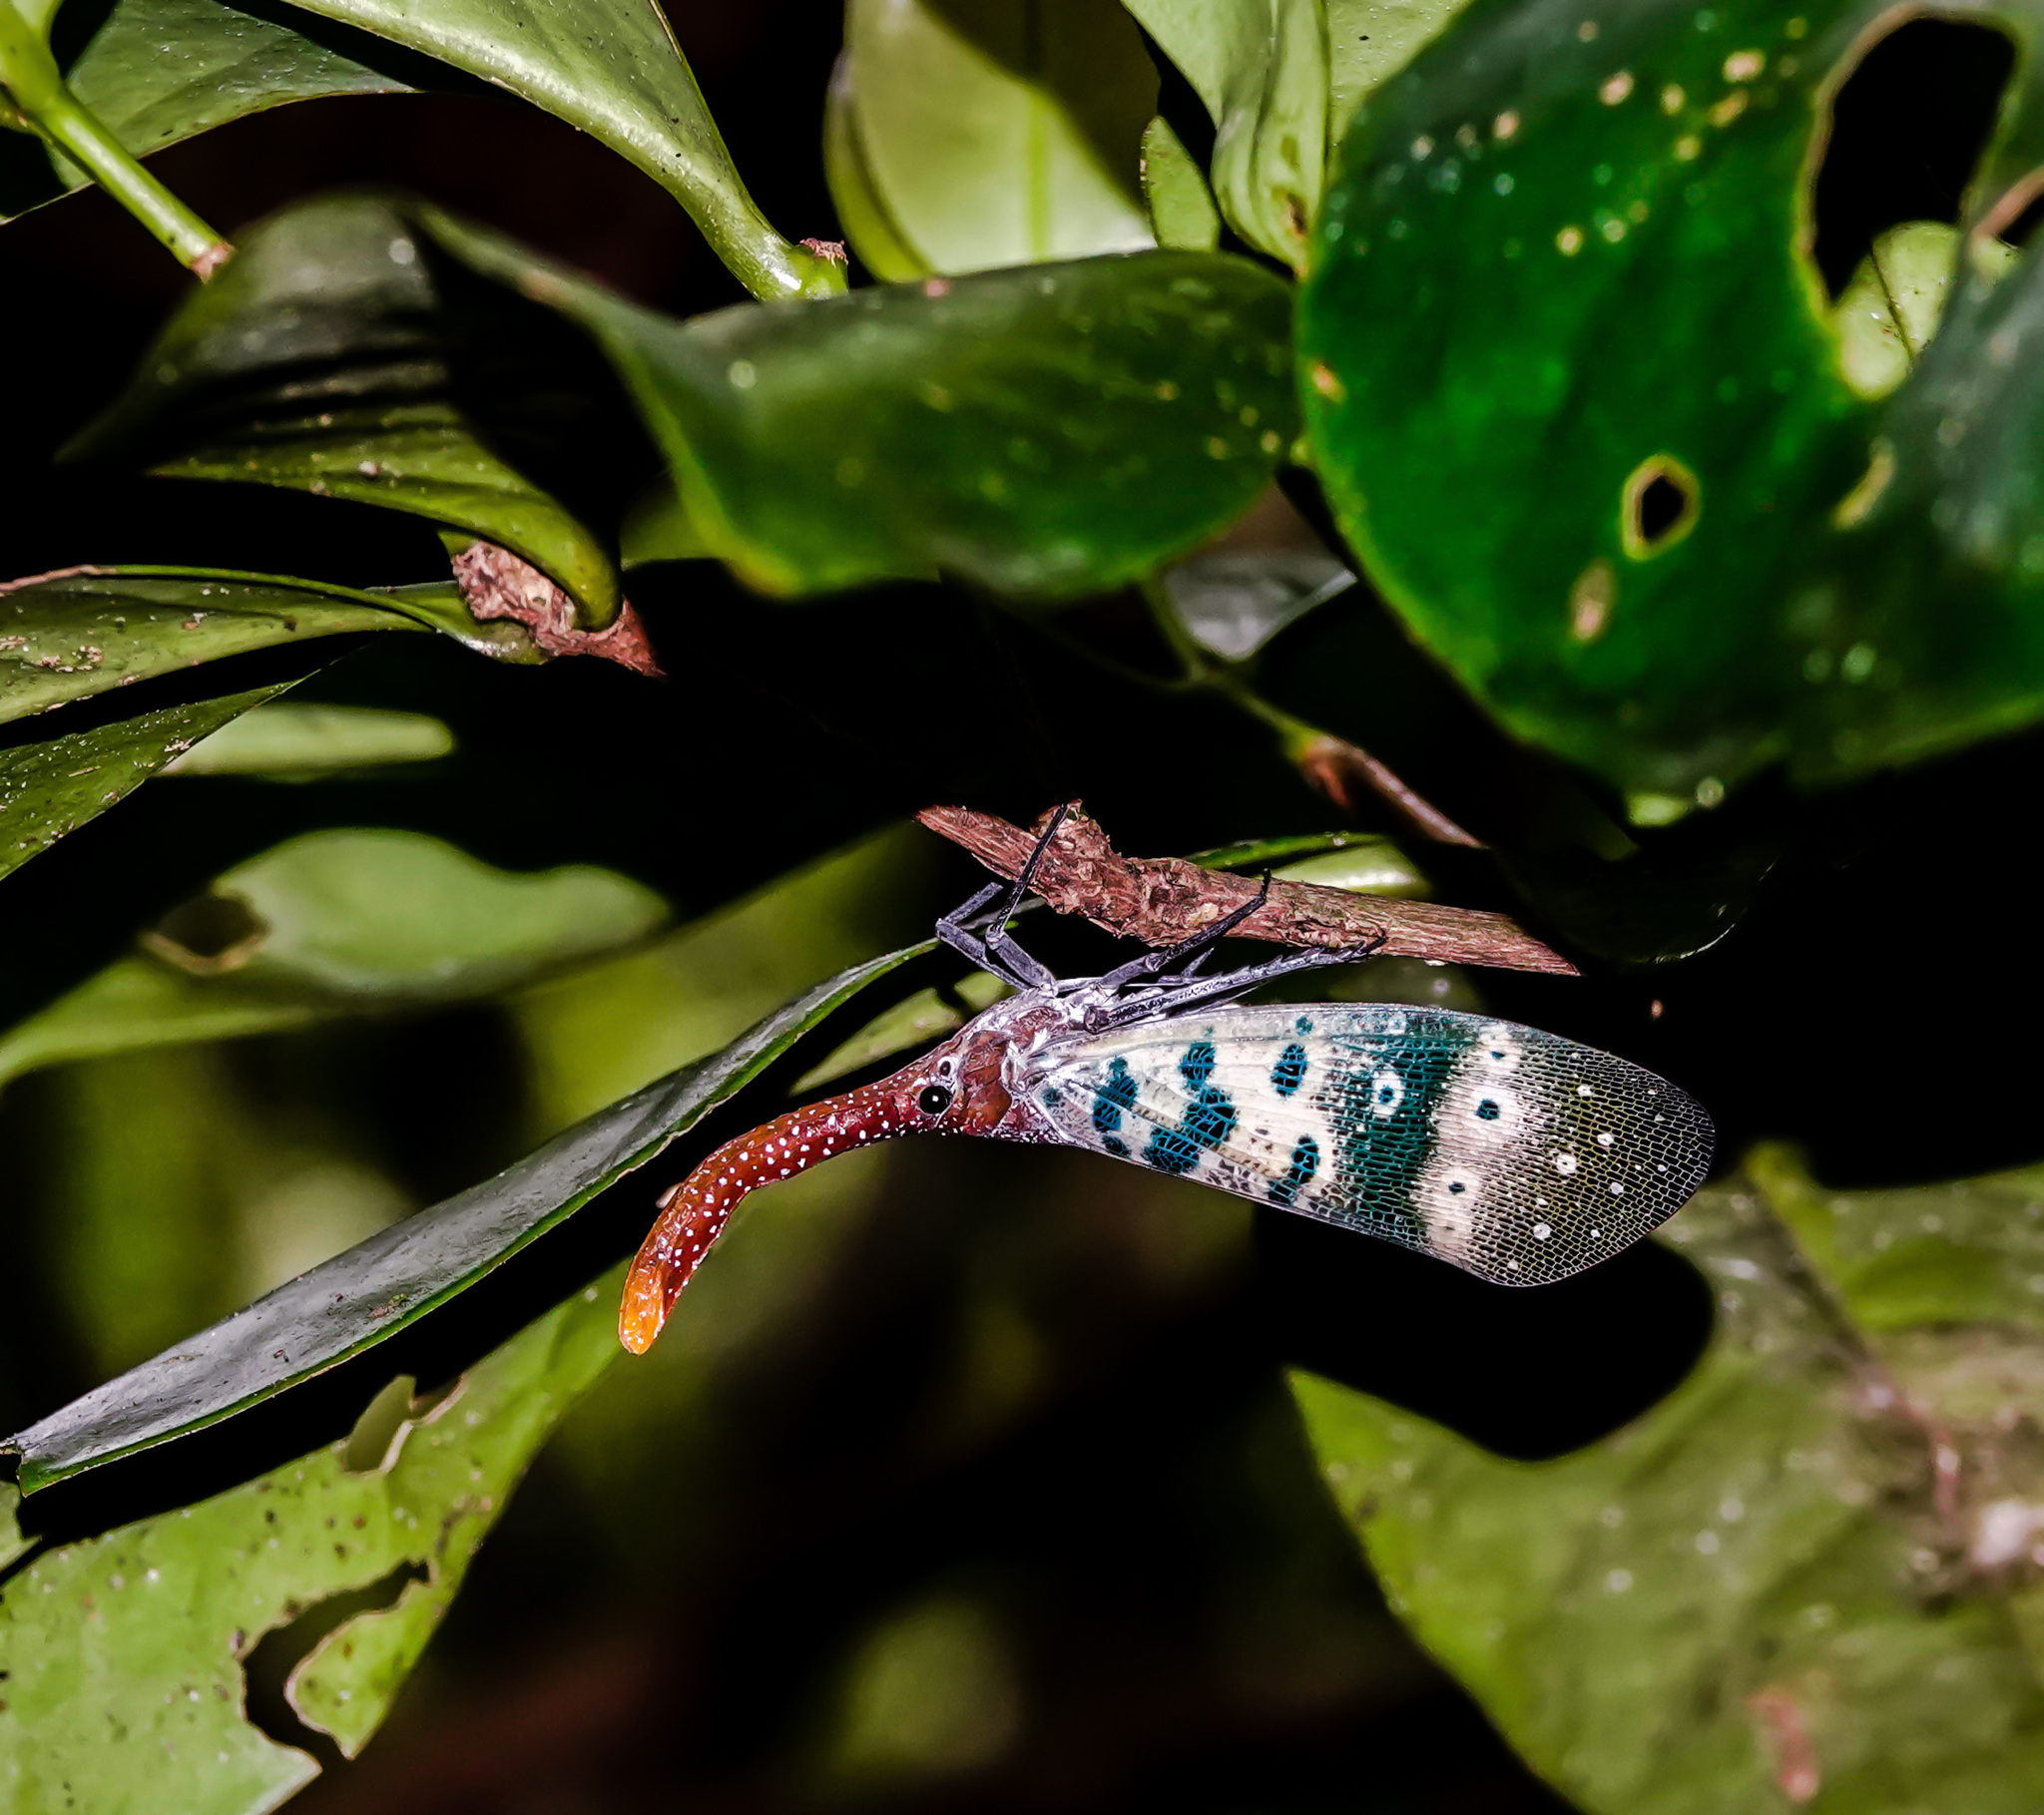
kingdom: Animalia
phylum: Arthropoda
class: Insecta
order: Hemiptera
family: Fulgoridae
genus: Pyrops
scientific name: Pyrops ducalis
